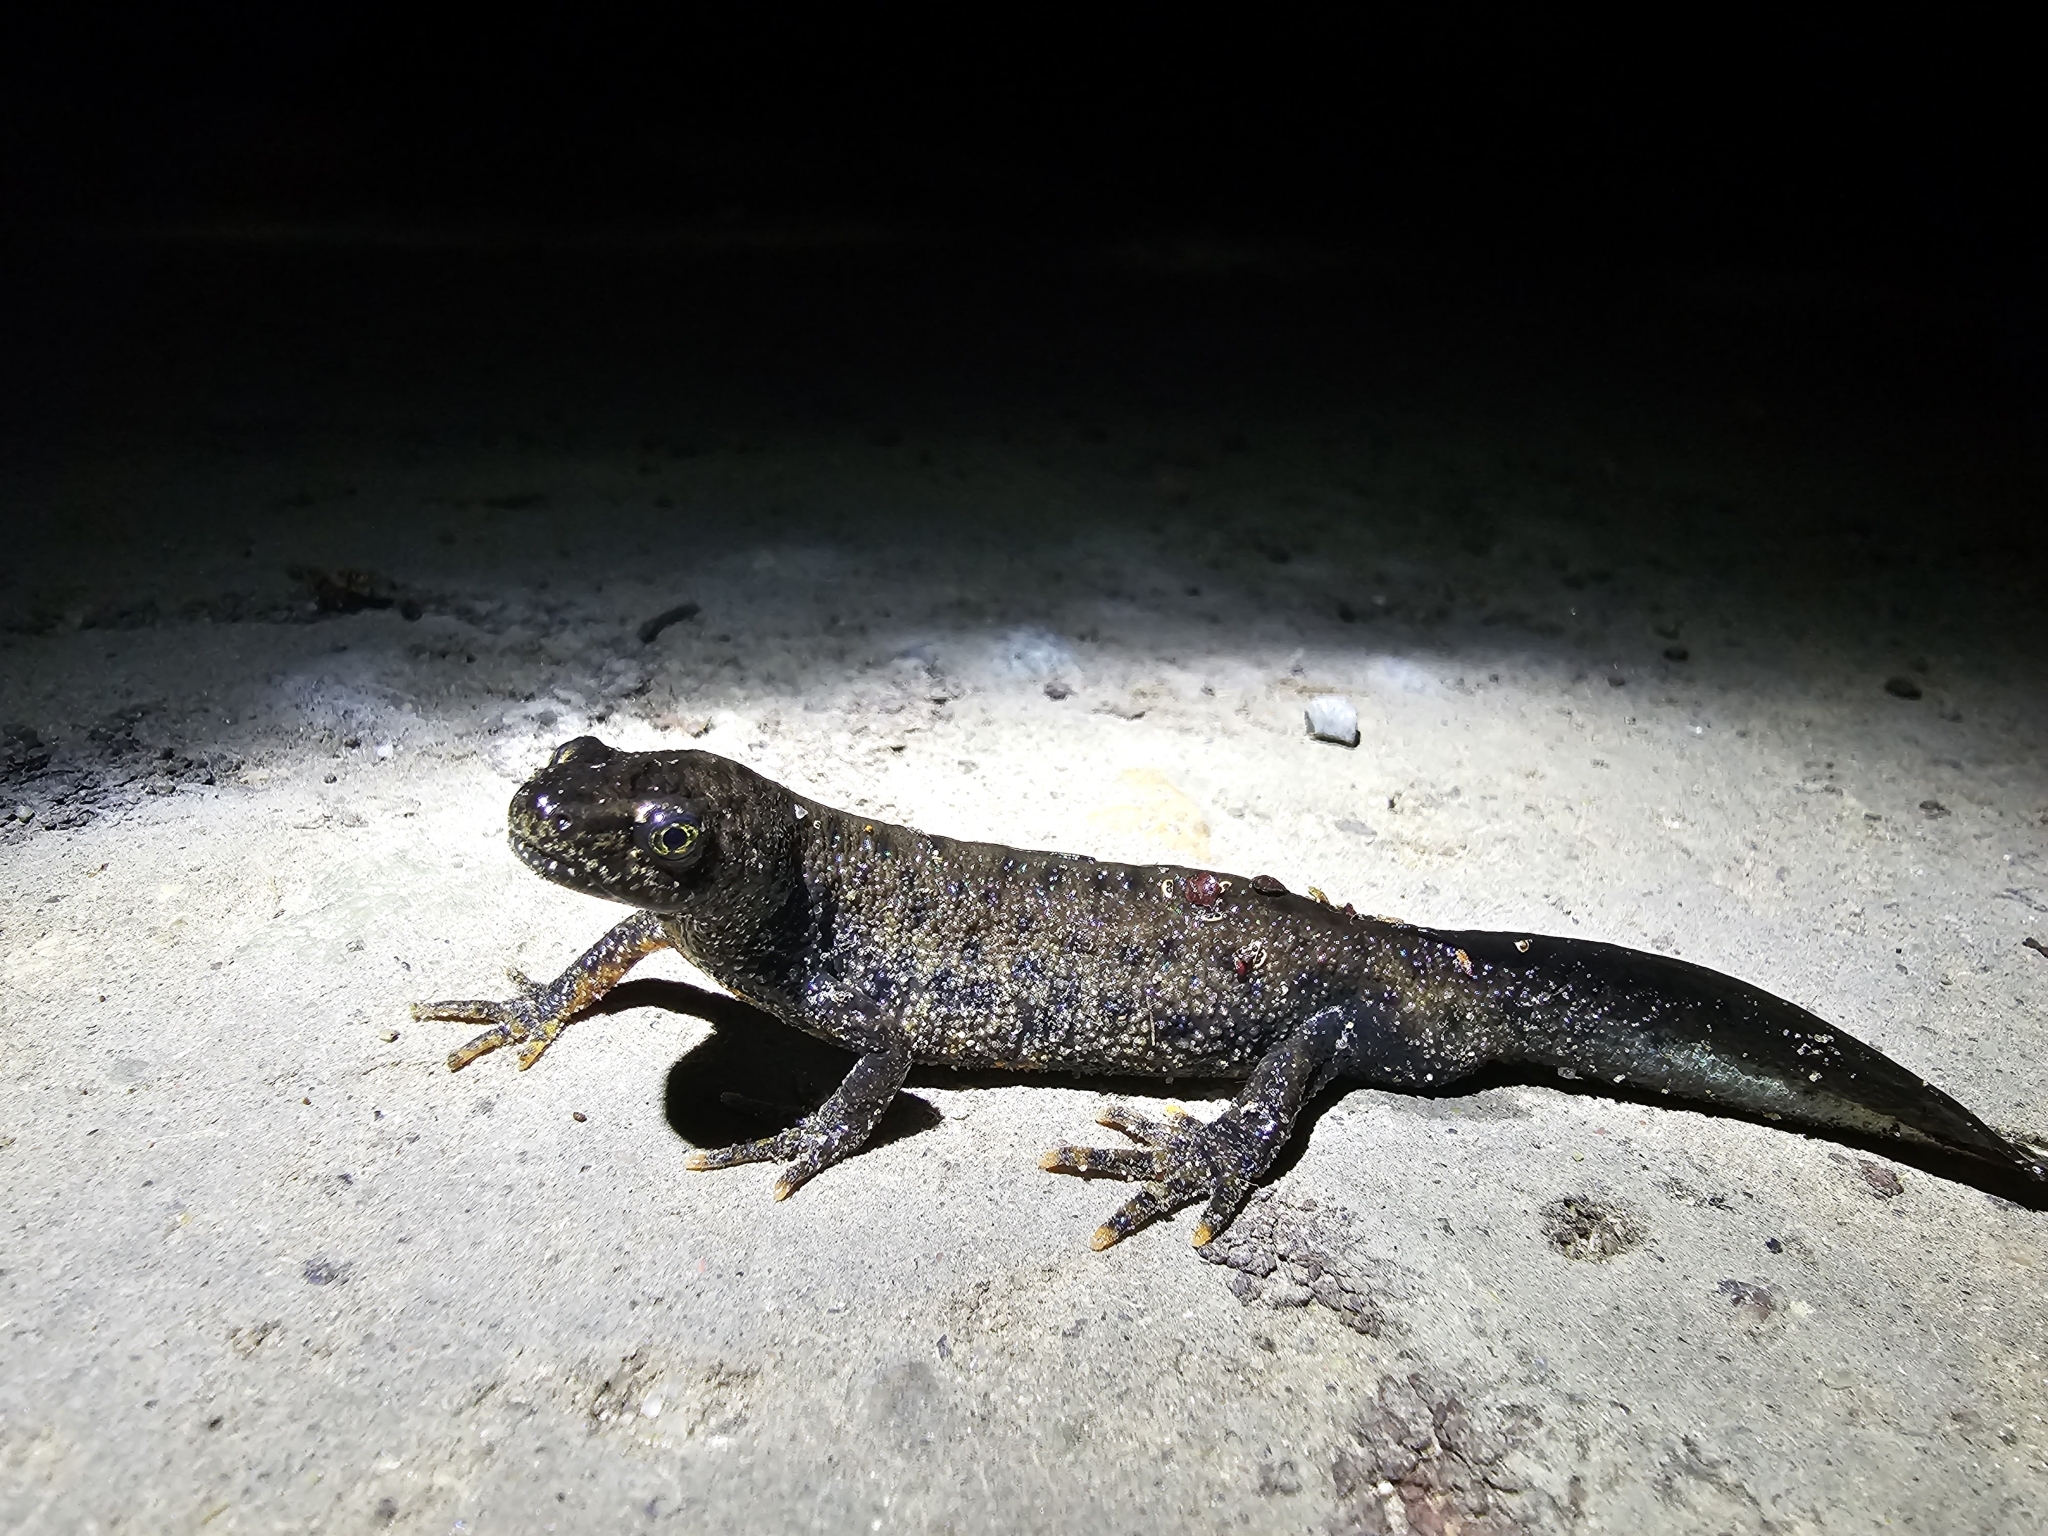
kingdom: Animalia
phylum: Chordata
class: Amphibia
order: Caudata
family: Salamandridae
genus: Triturus
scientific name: Triturus cristatus
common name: Crested newt
